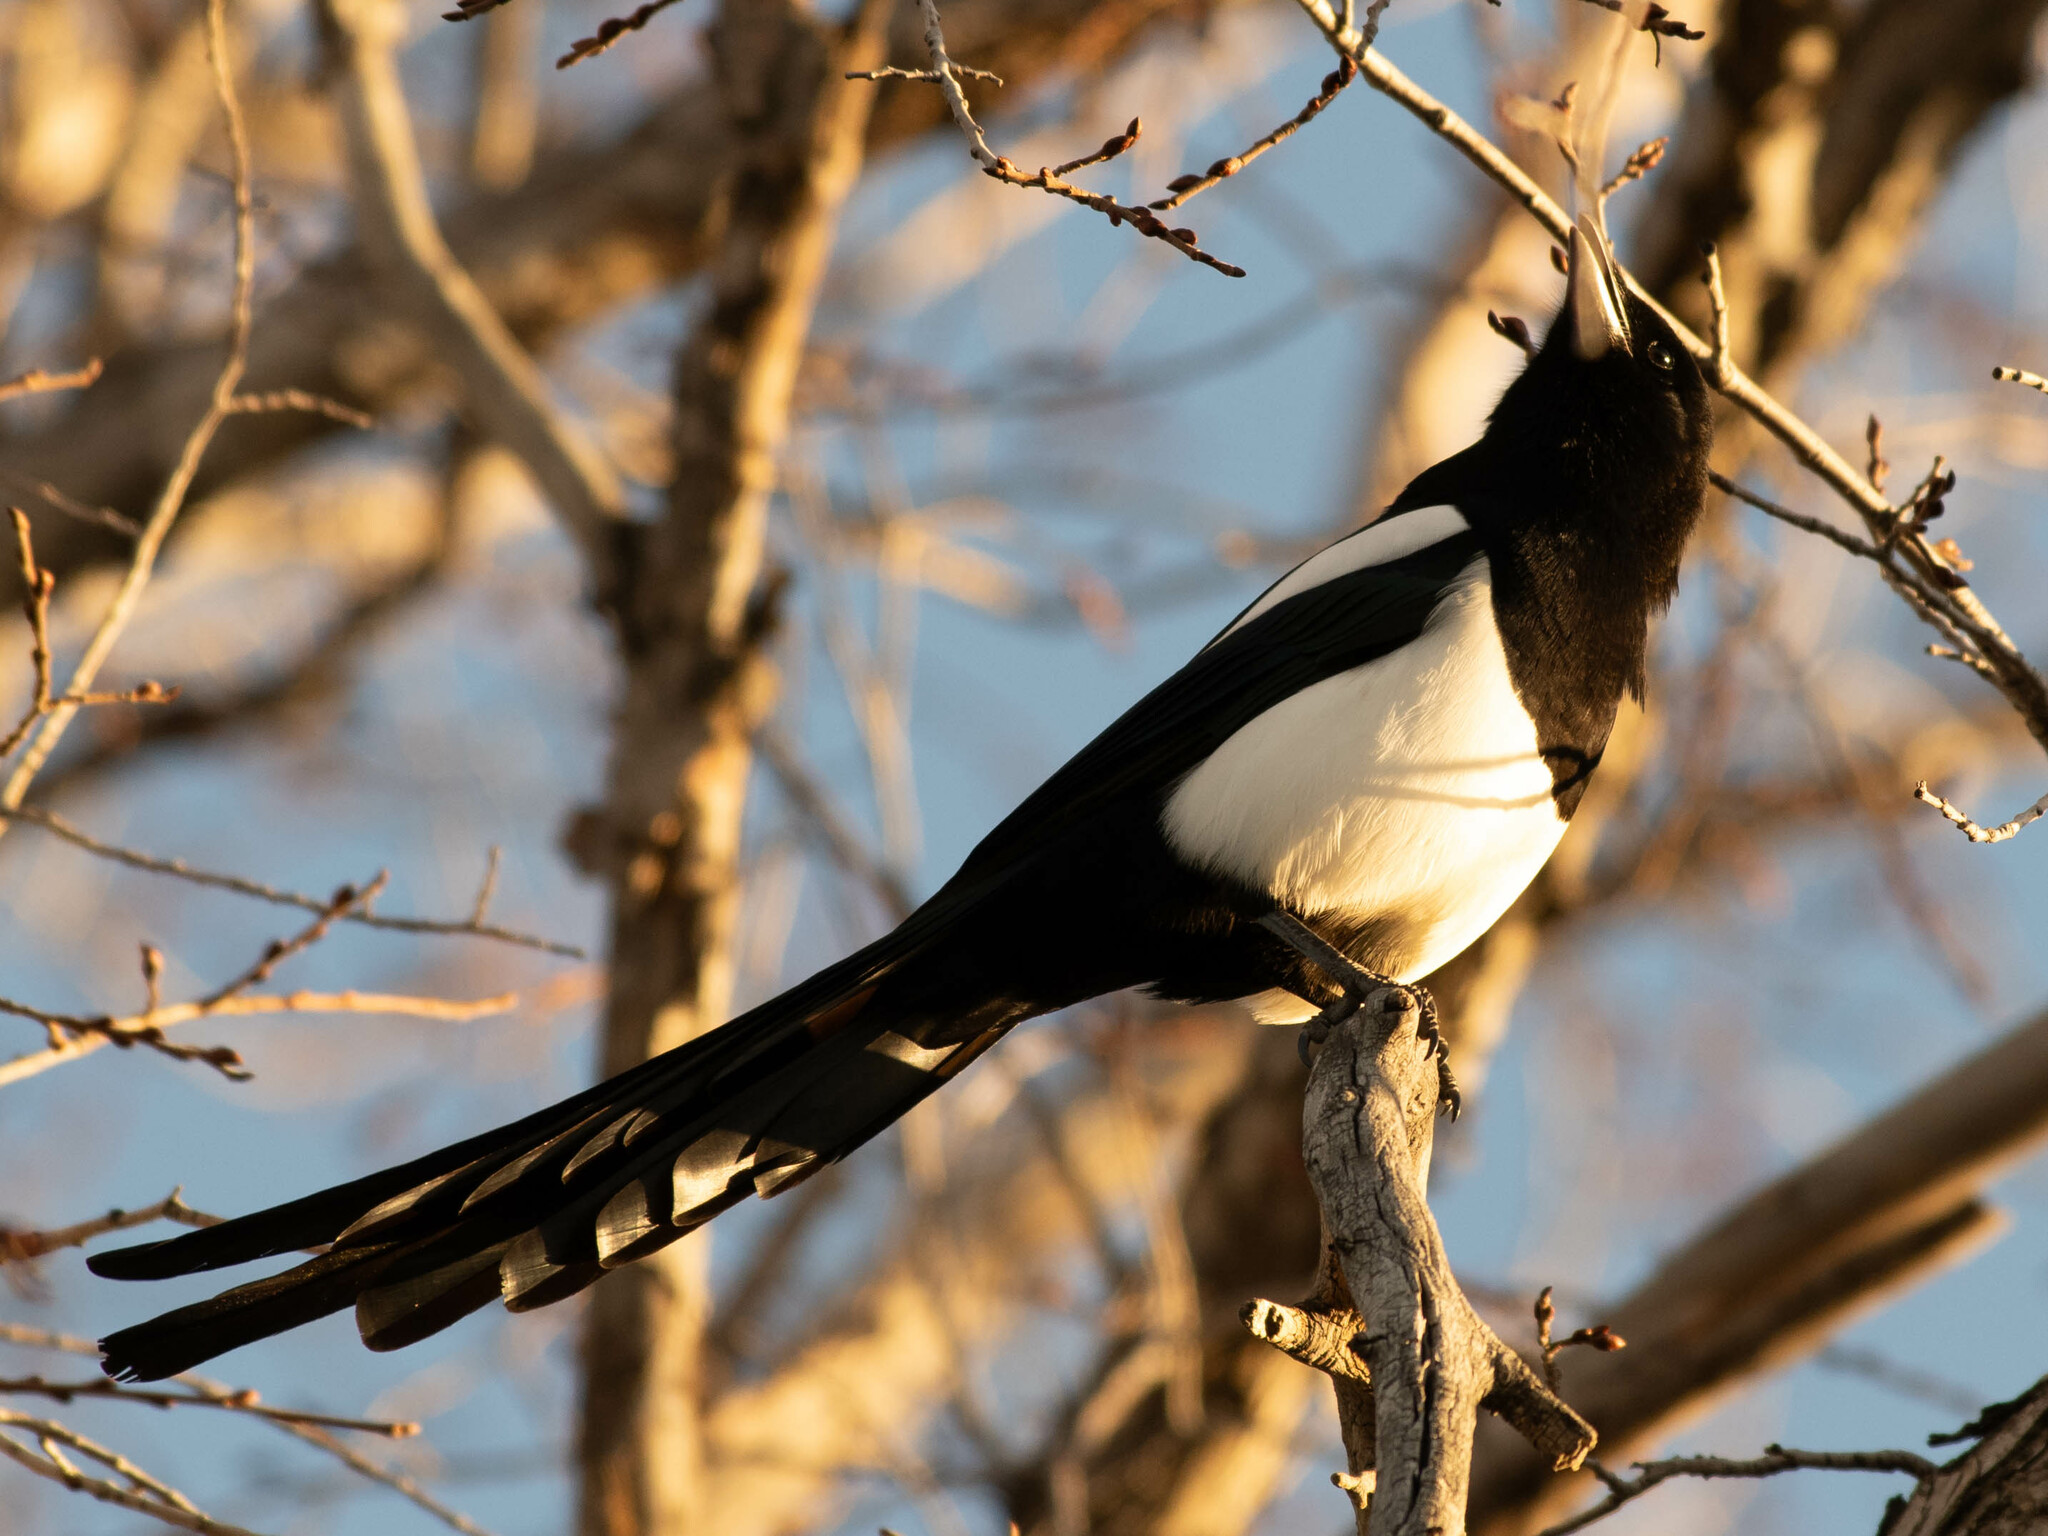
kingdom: Animalia
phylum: Chordata
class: Aves
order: Passeriformes
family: Corvidae
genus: Pica
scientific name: Pica hudsonia
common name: Black-billed magpie
